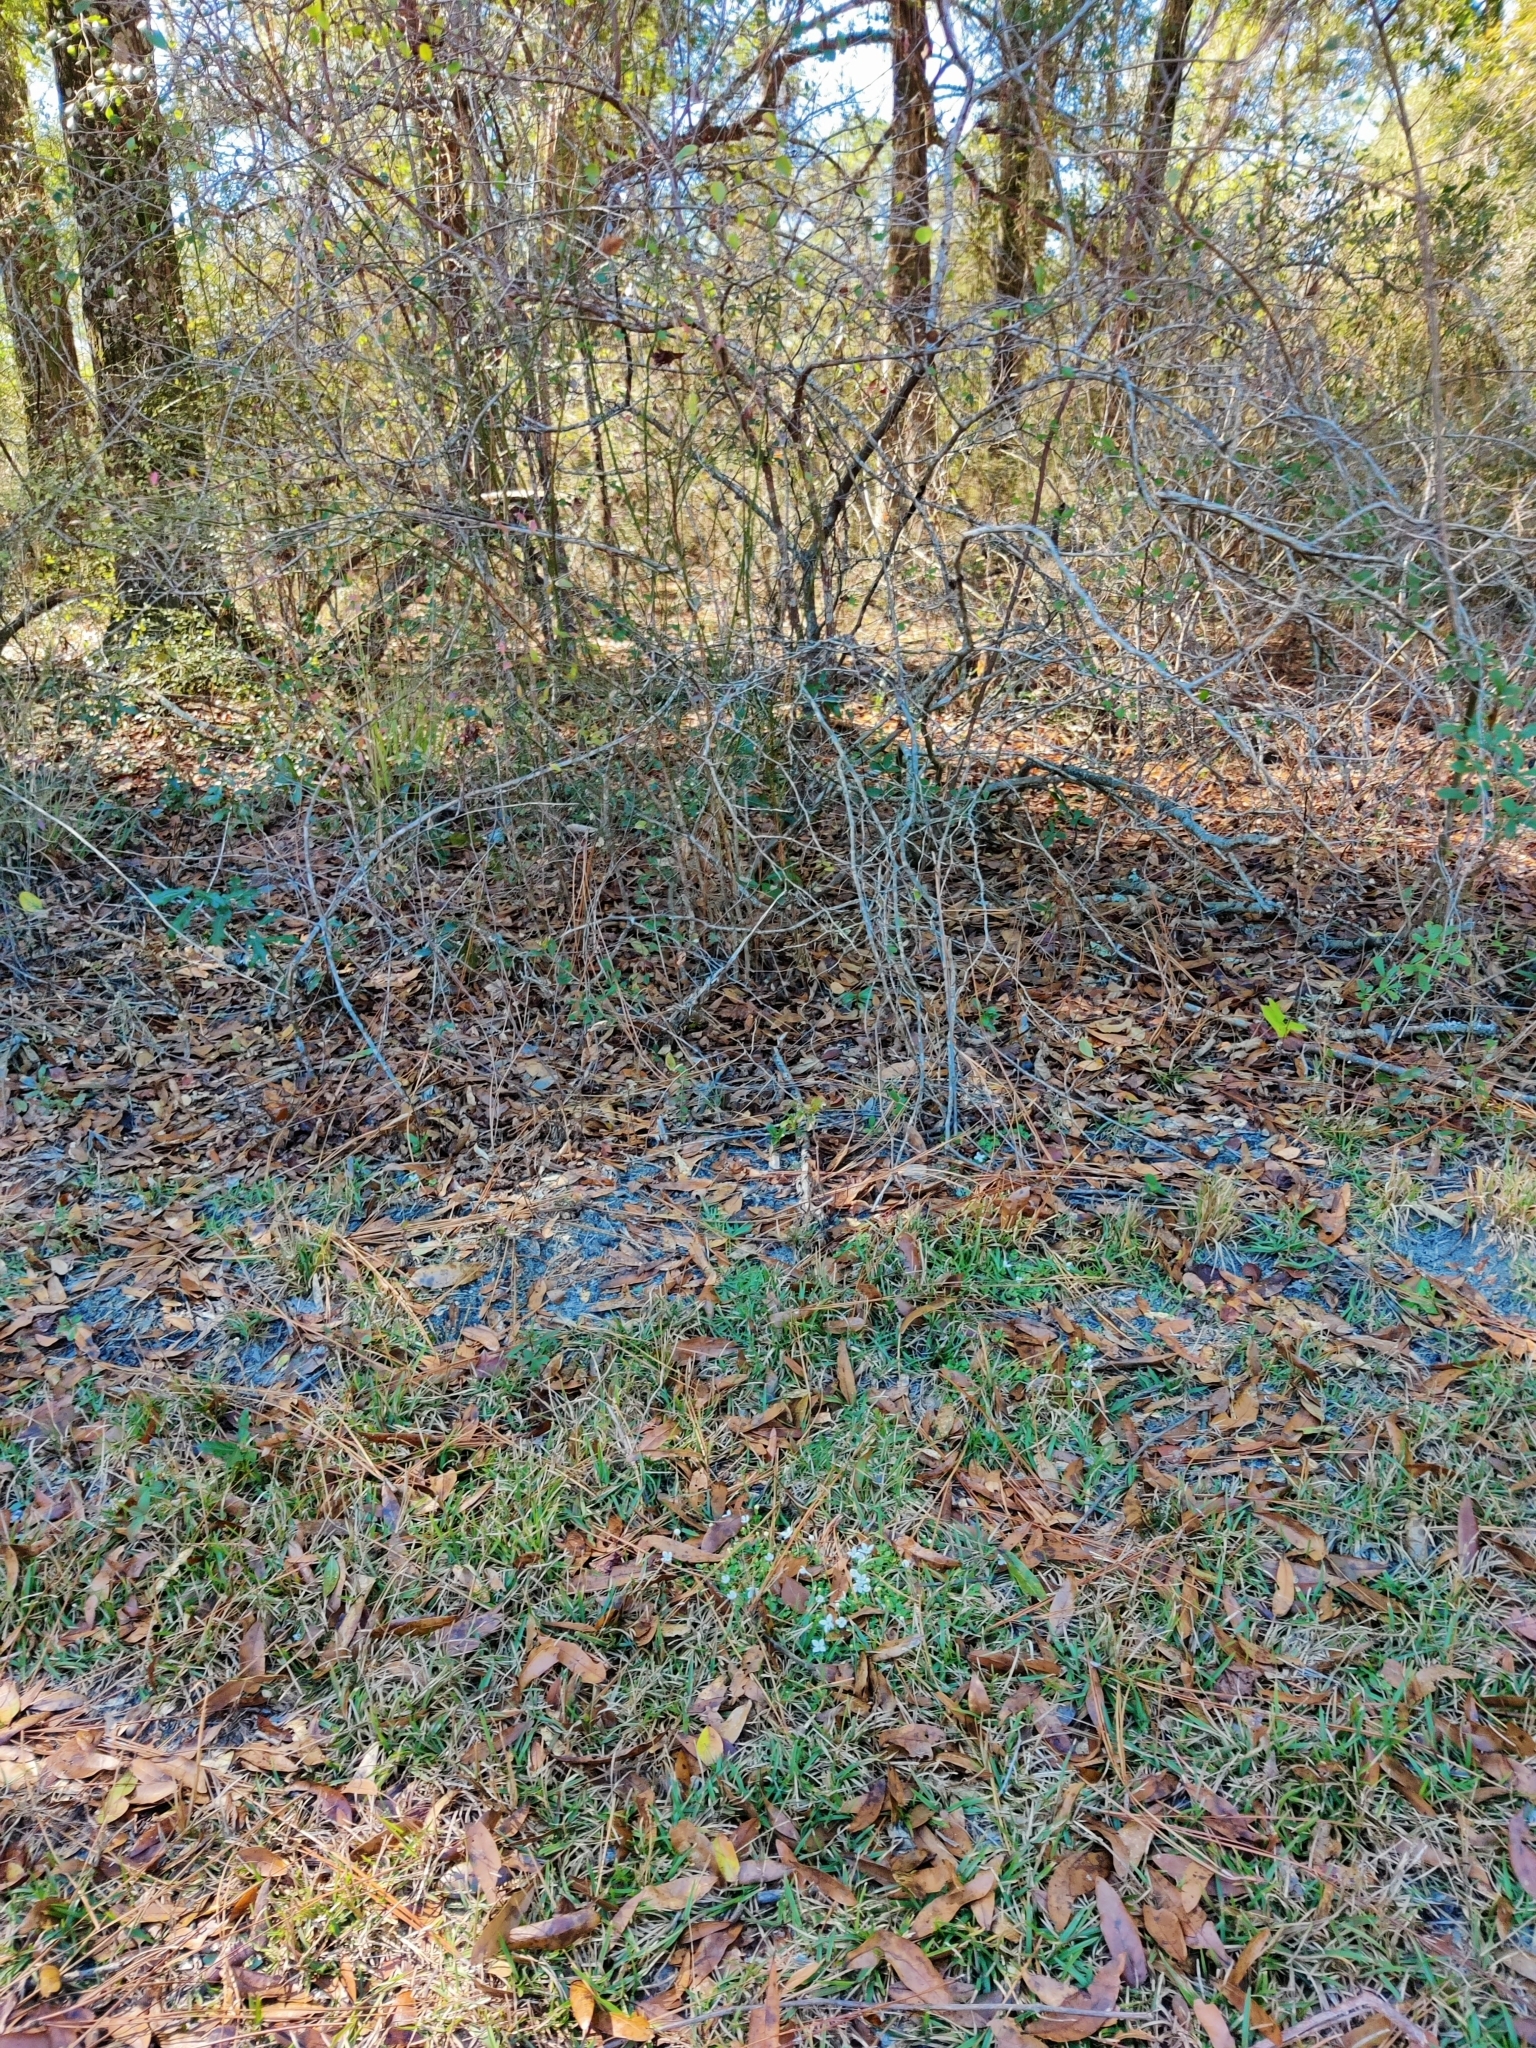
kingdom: Plantae
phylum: Tracheophyta
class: Magnoliopsida
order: Gentianales
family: Rubiaceae
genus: Houstonia
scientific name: Houstonia procumbens
